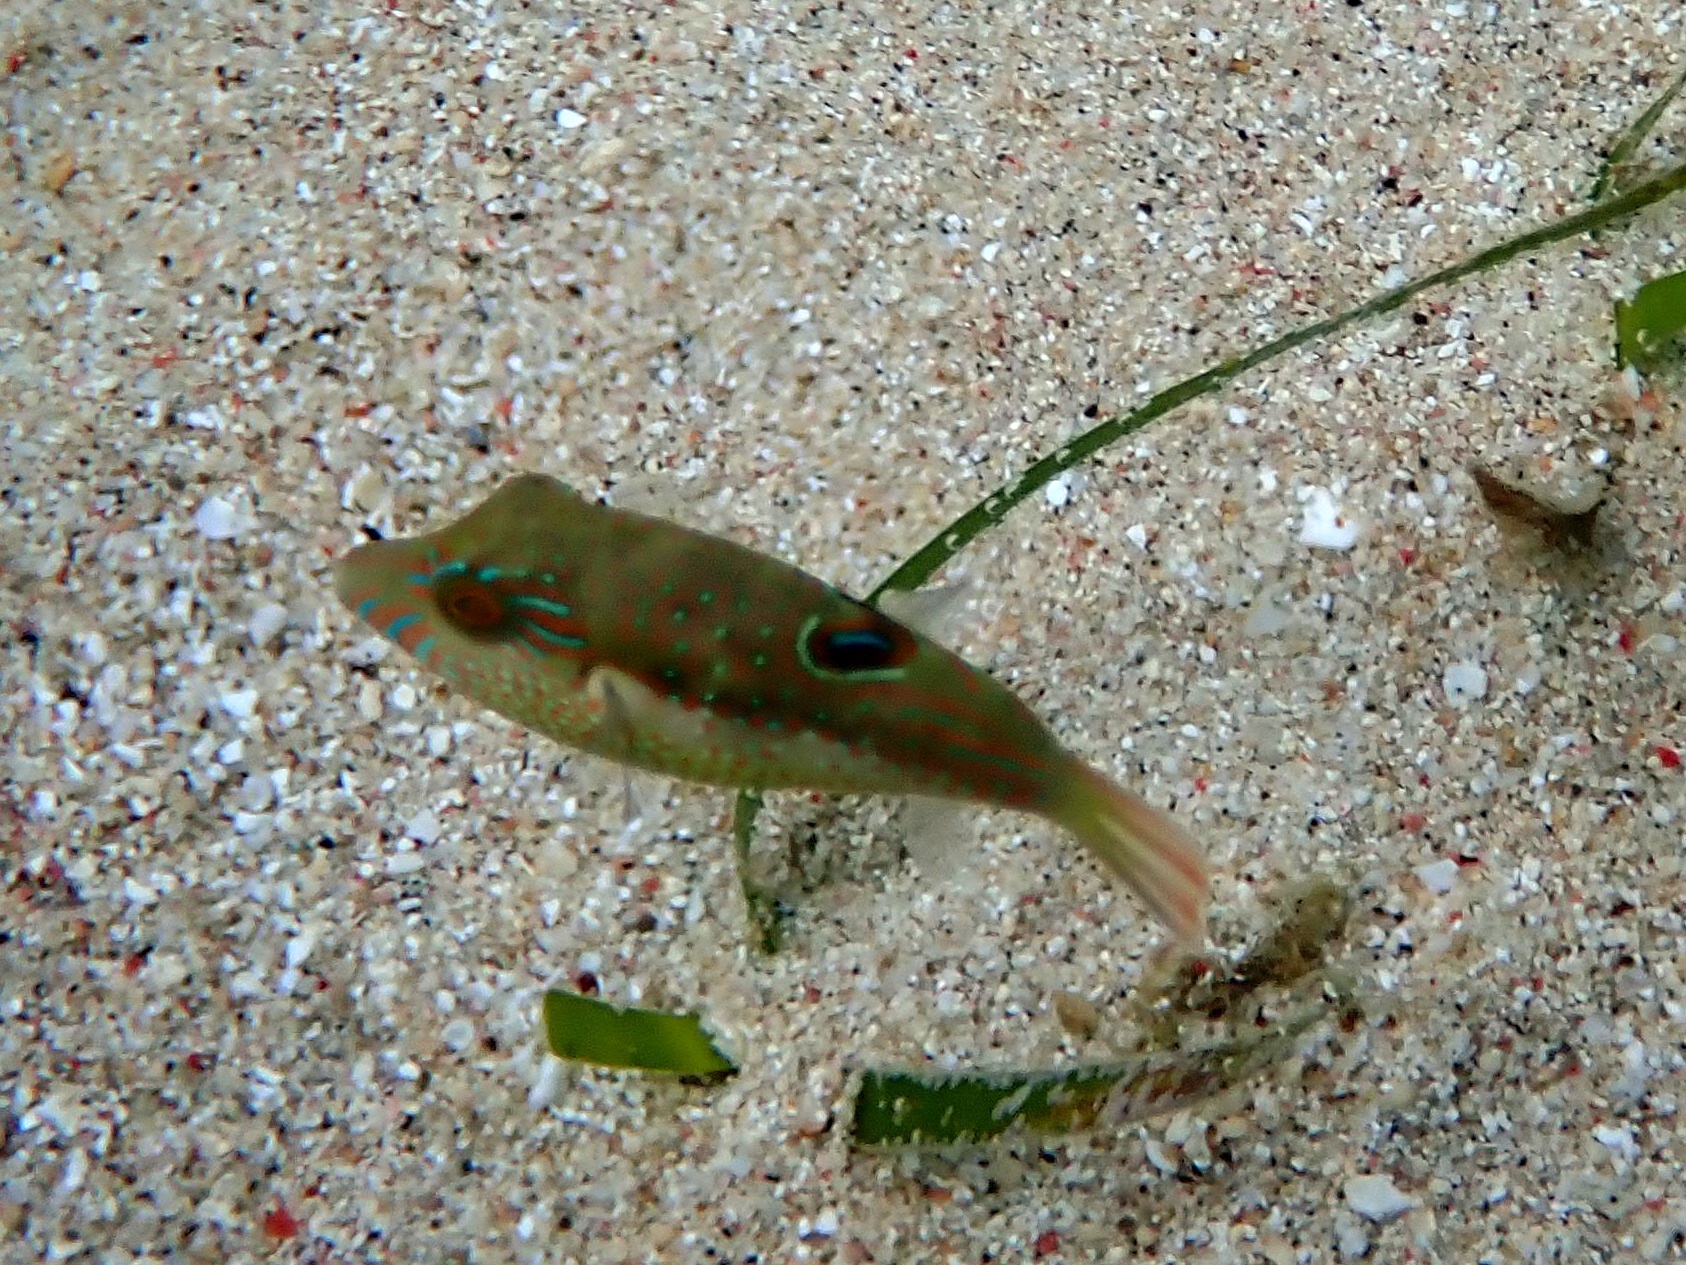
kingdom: Animalia
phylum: Chordata
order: Tetraodontiformes
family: Tetraodontidae
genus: Canthigaster
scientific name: Canthigaster bennetti
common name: Bennett's pufferfish
